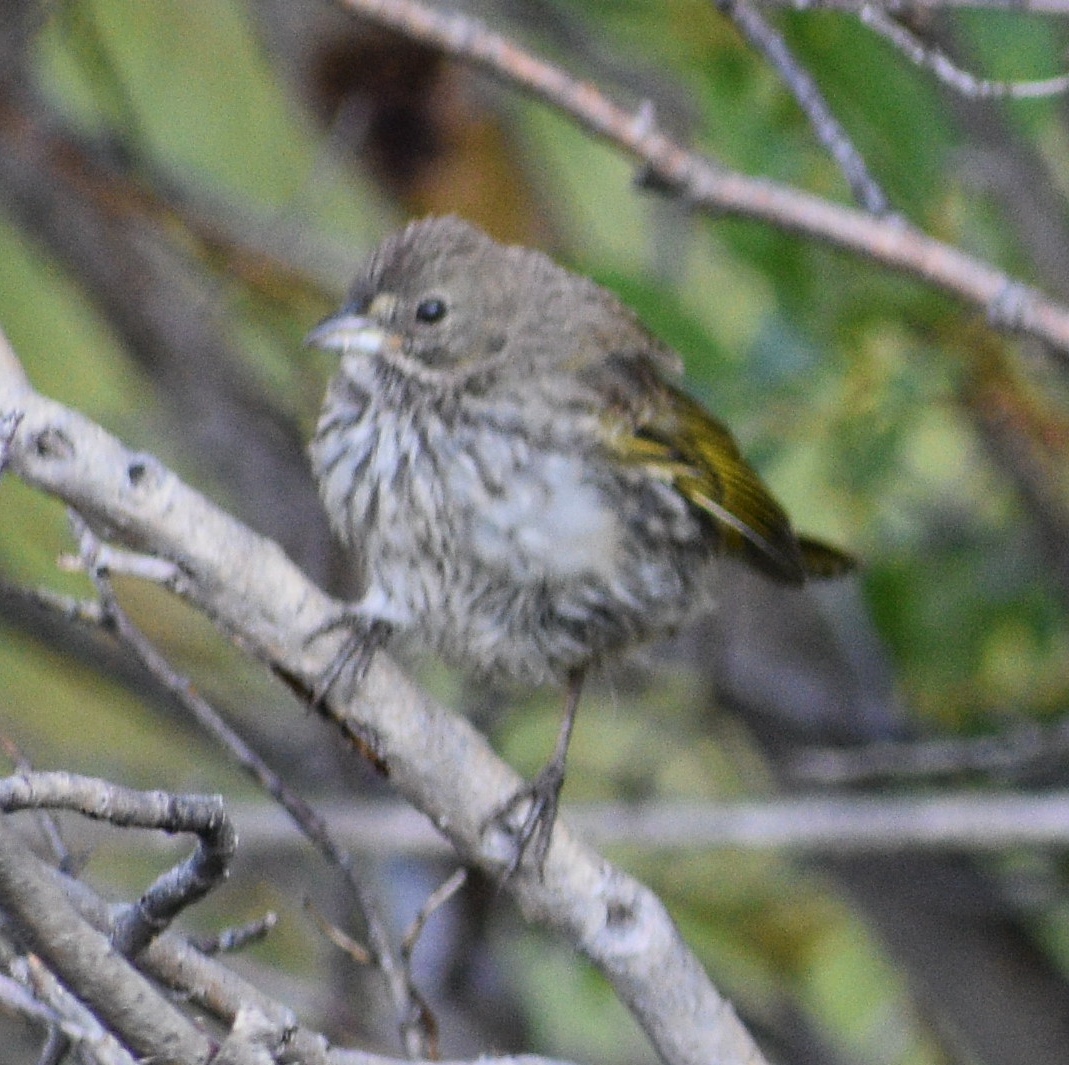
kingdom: Animalia
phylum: Chordata
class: Aves
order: Passeriformes
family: Passerellidae
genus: Pipilo
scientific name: Pipilo chlorurus
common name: Green-tailed towhee
